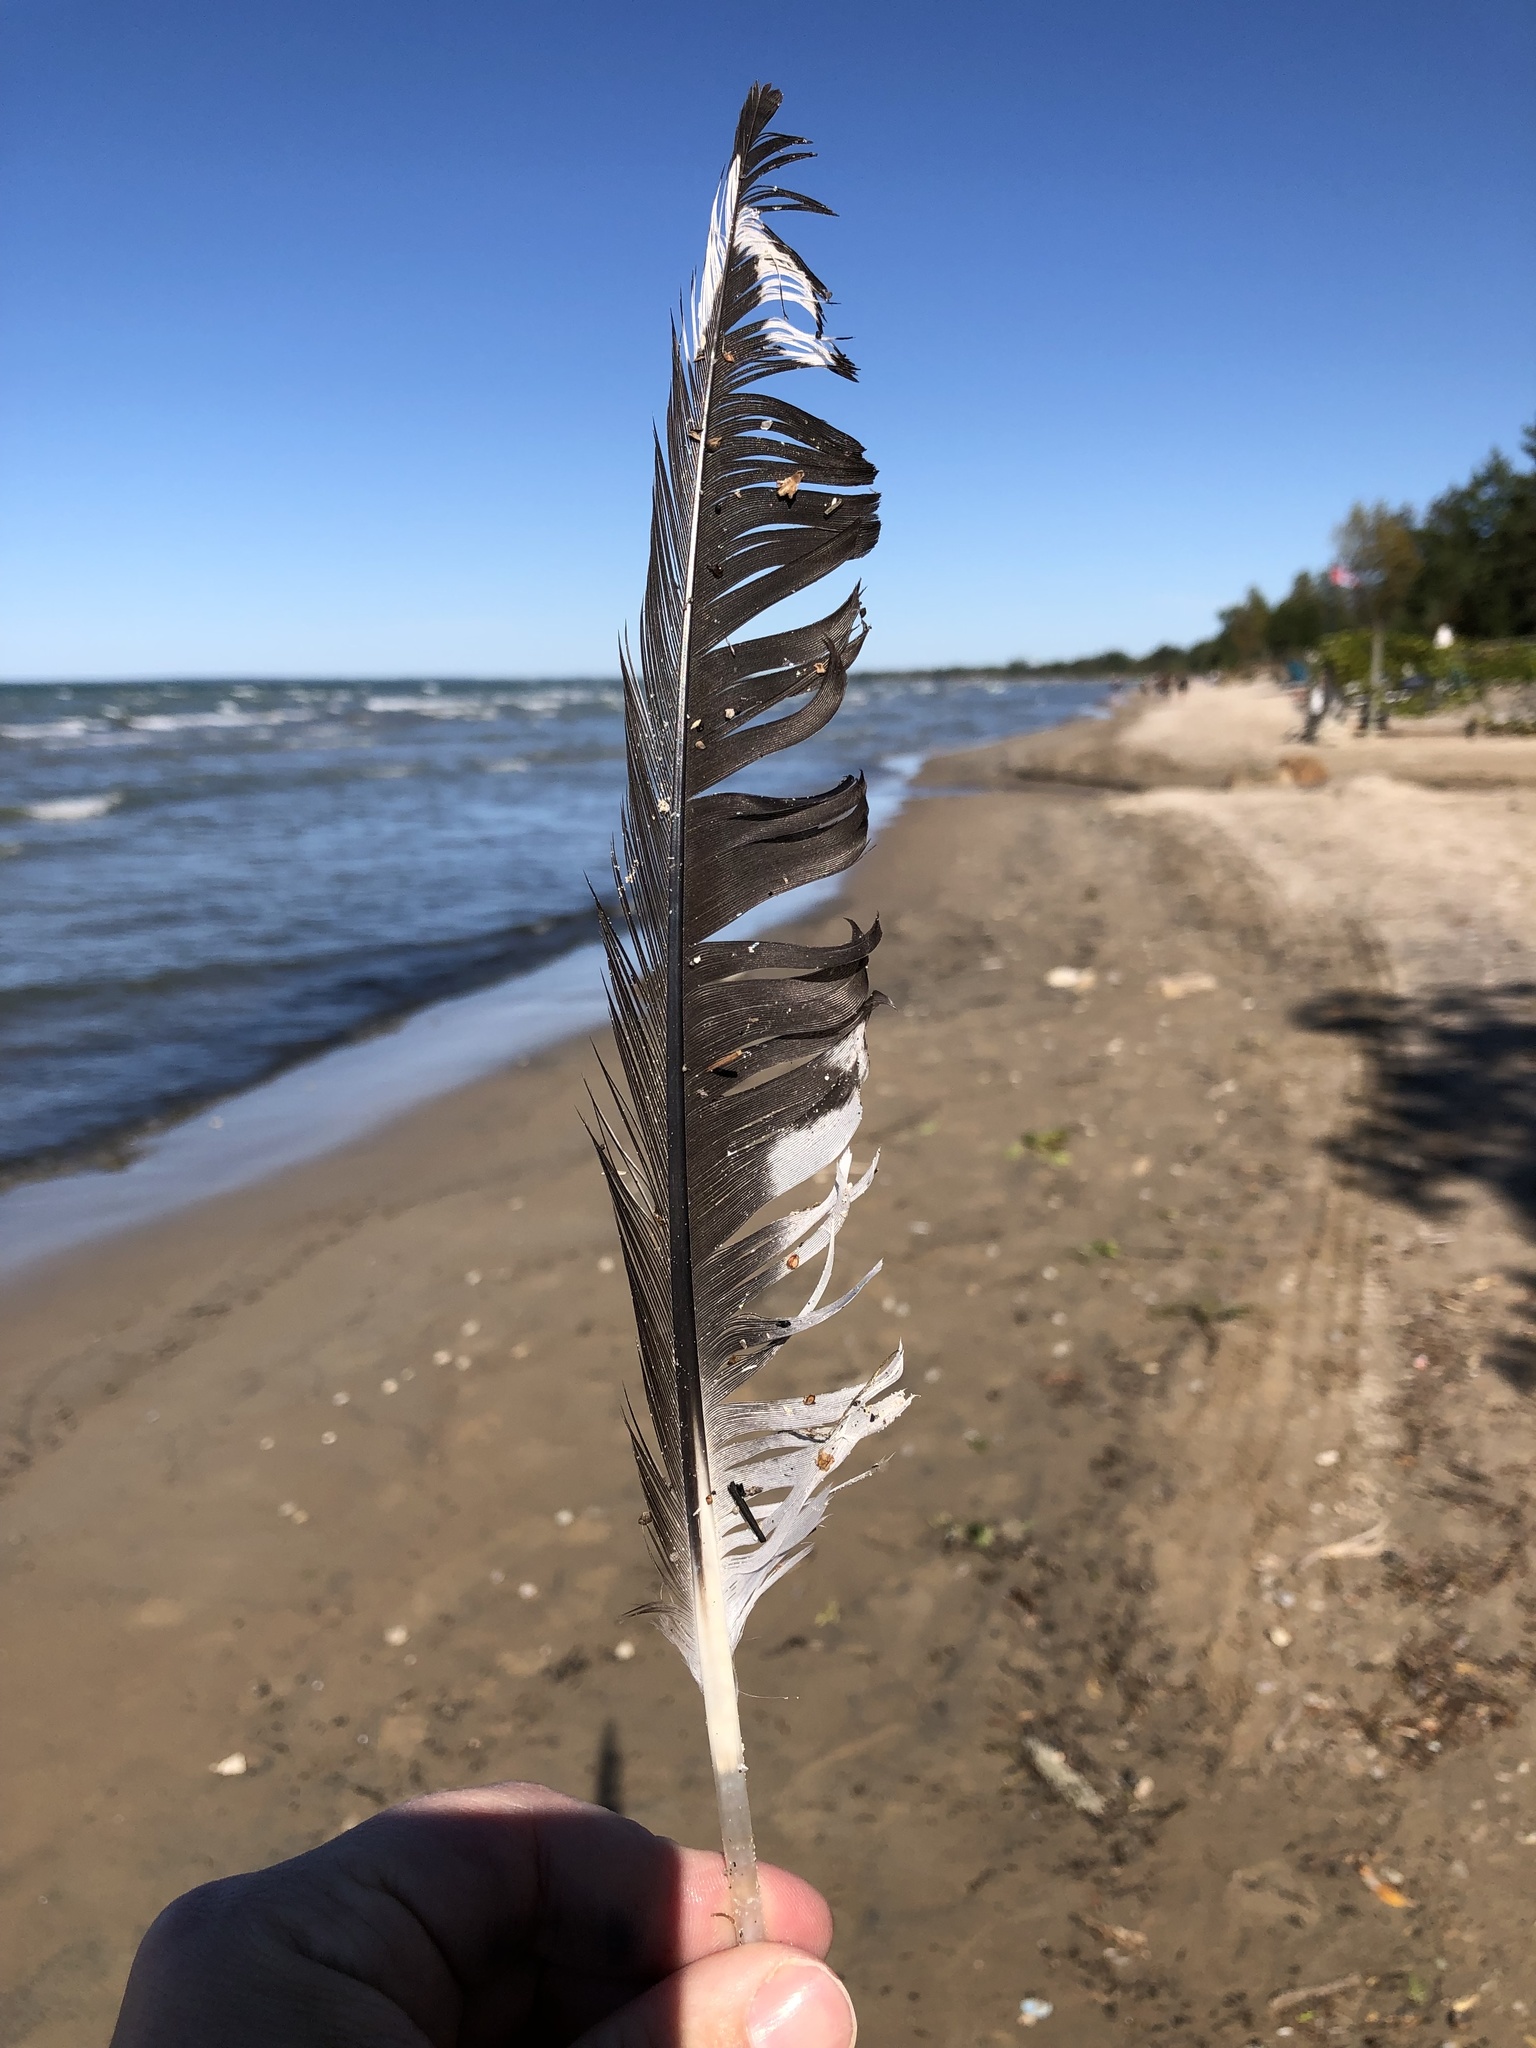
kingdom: Animalia
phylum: Chordata
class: Aves
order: Charadriiformes
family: Laridae
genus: Larus
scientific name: Larus delawarensis
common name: Ring-billed gull
